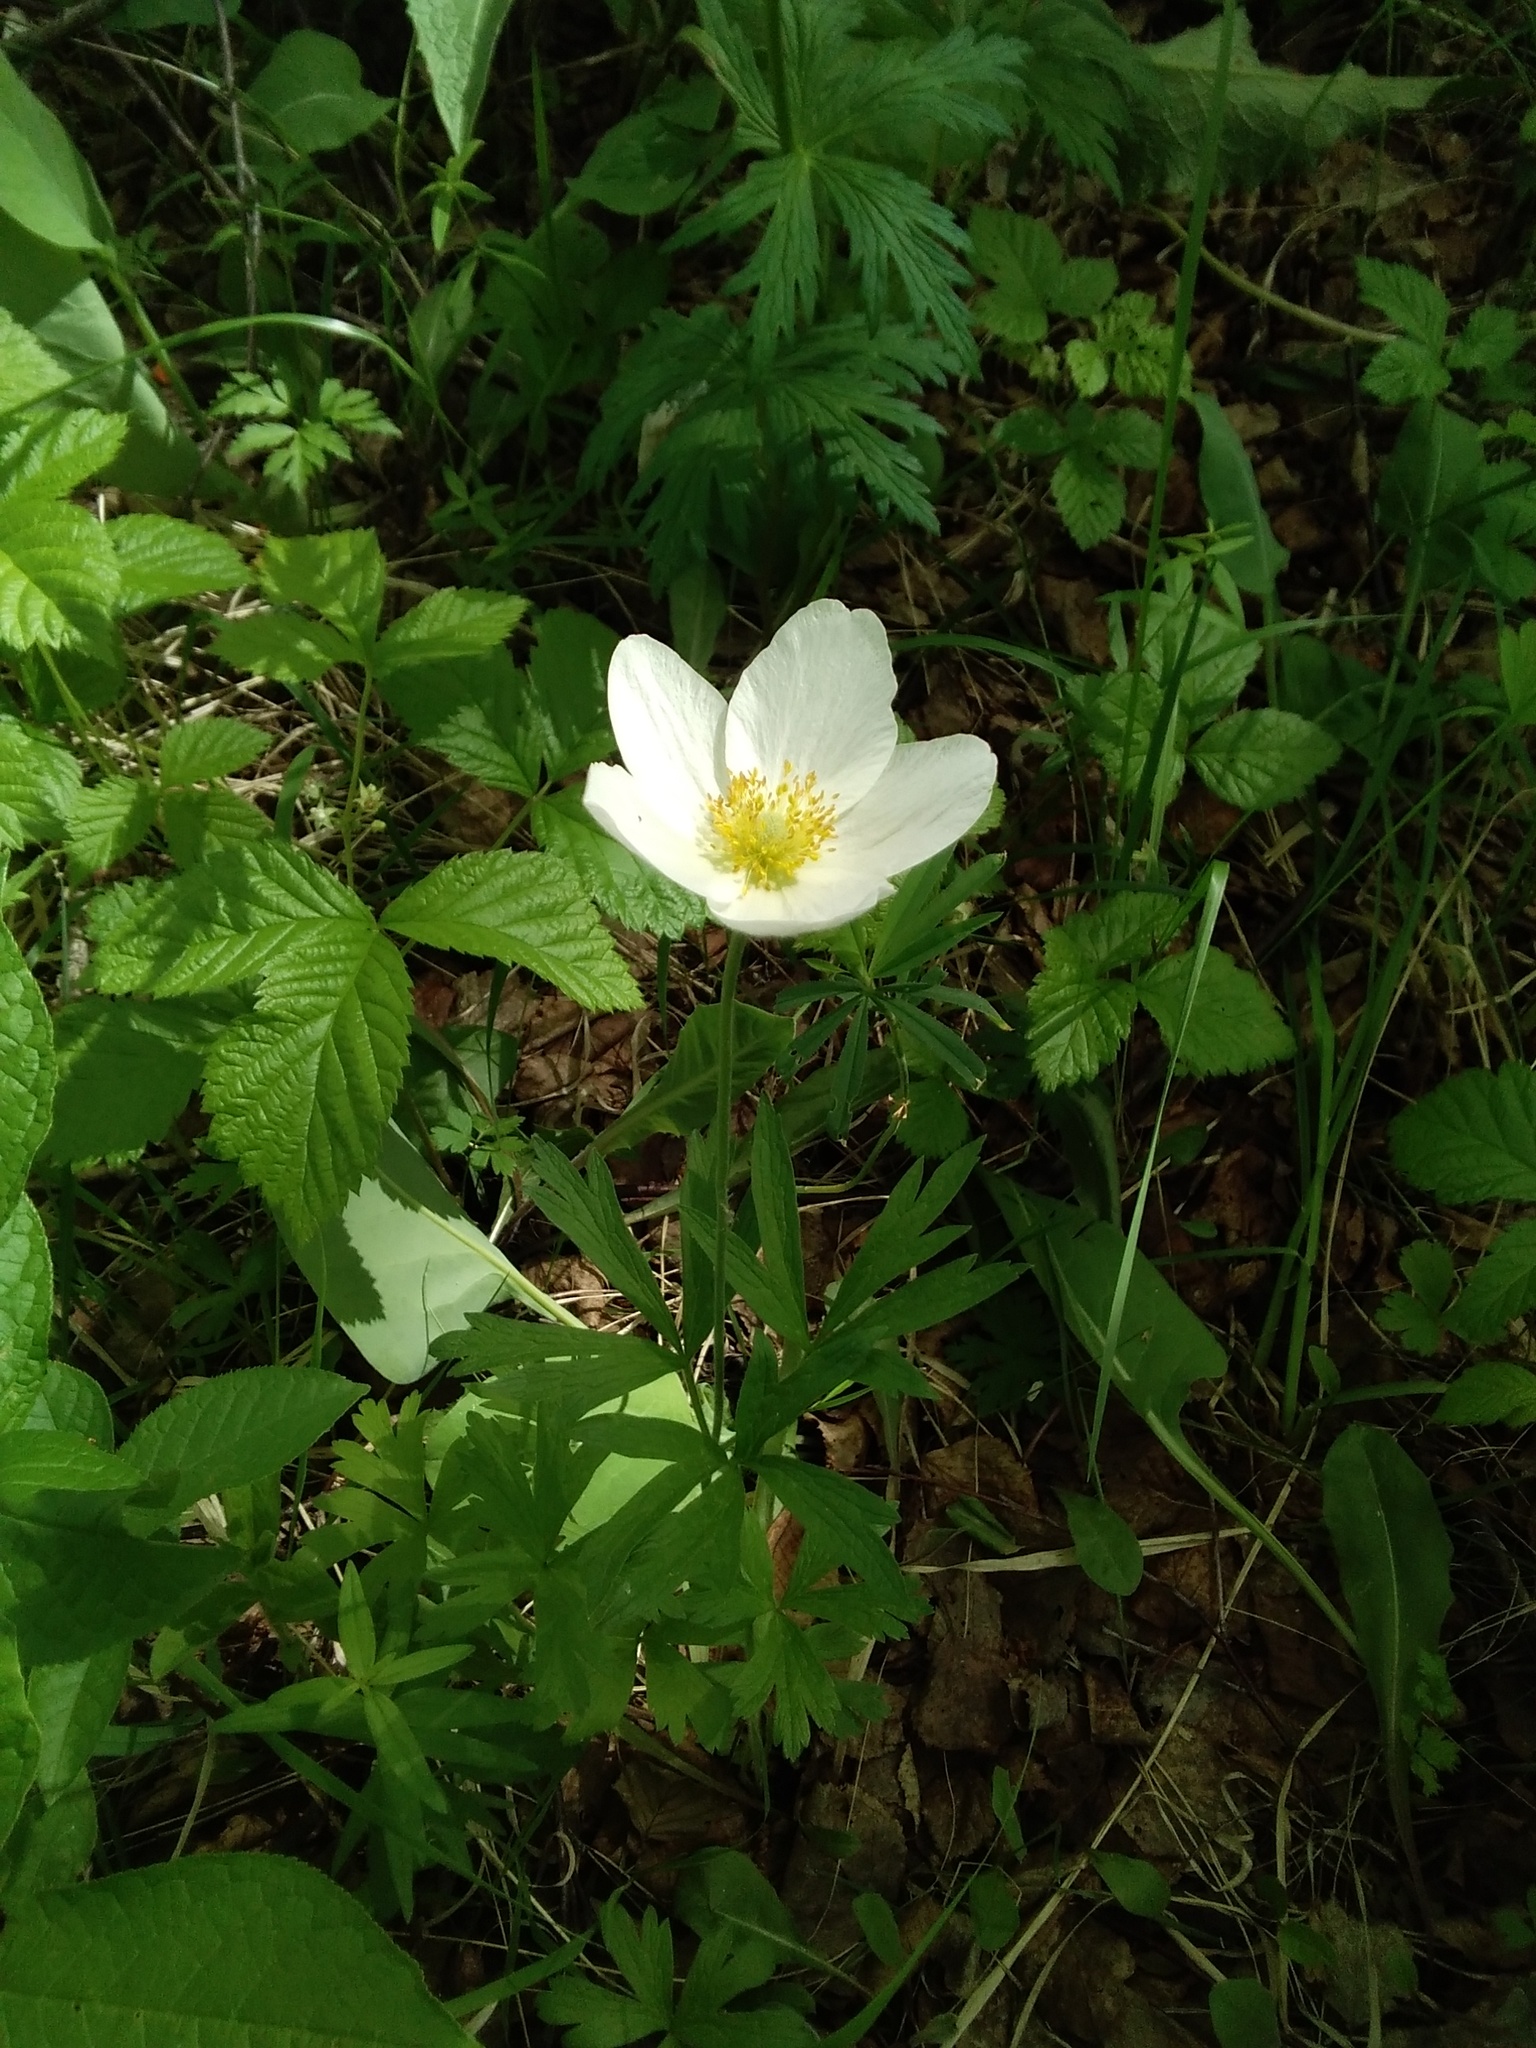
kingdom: Plantae
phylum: Tracheophyta
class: Magnoliopsida
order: Ranunculales
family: Ranunculaceae
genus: Anemone
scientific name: Anemone sylvestris
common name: Snowdrop anemone
